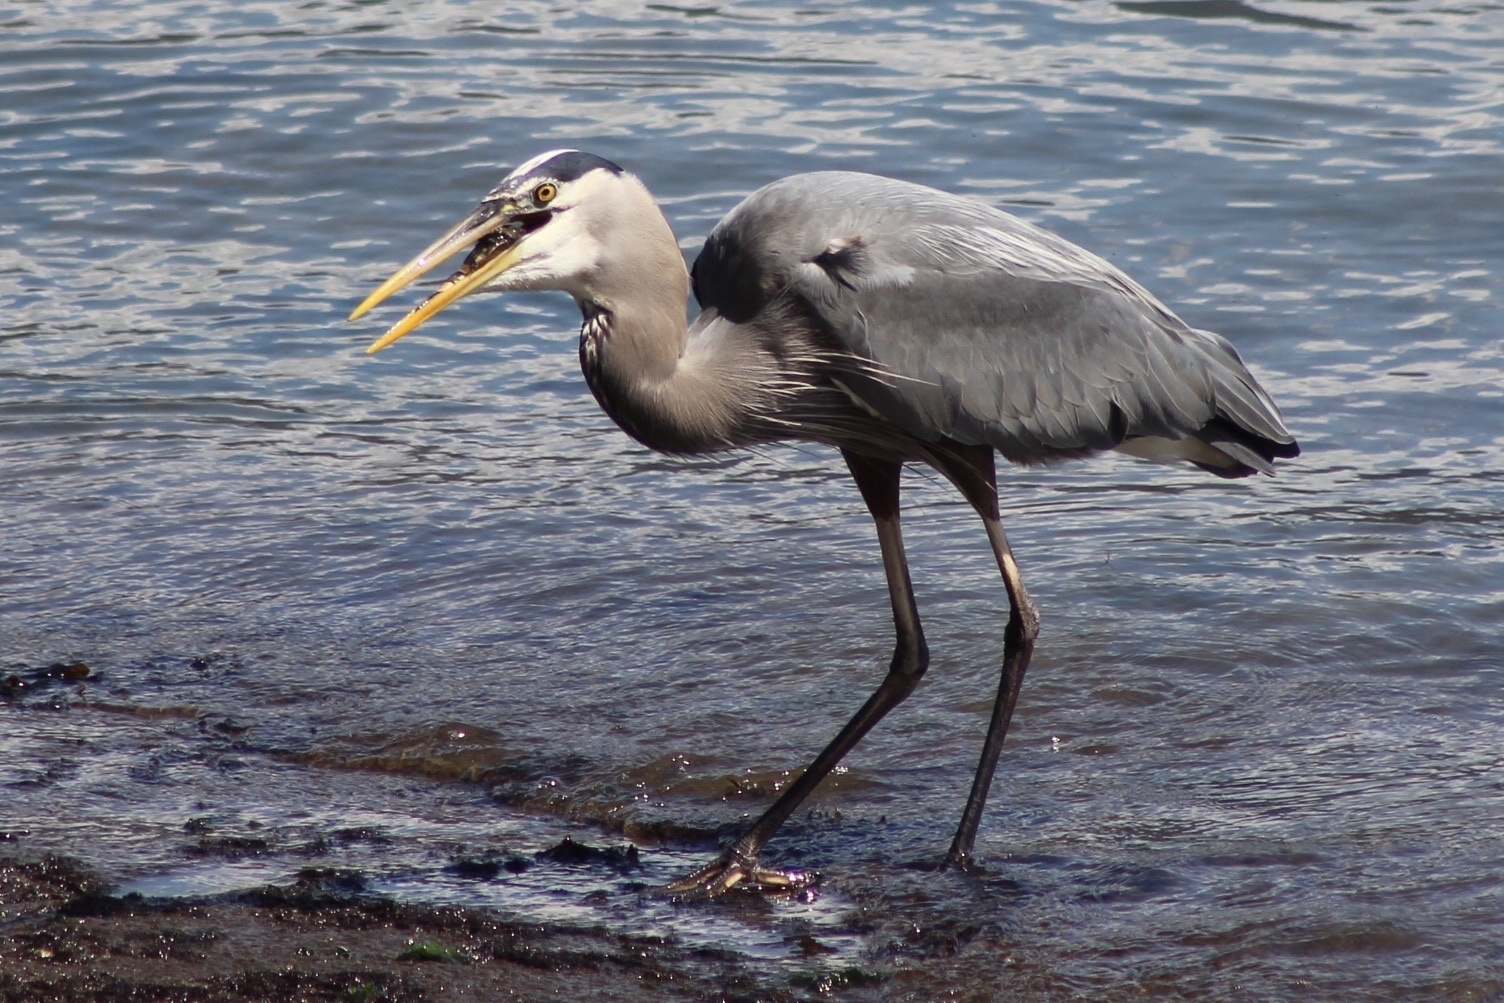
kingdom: Animalia
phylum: Chordata
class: Aves
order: Pelecaniformes
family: Ardeidae
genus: Ardea
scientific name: Ardea herodias
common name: Great blue heron
